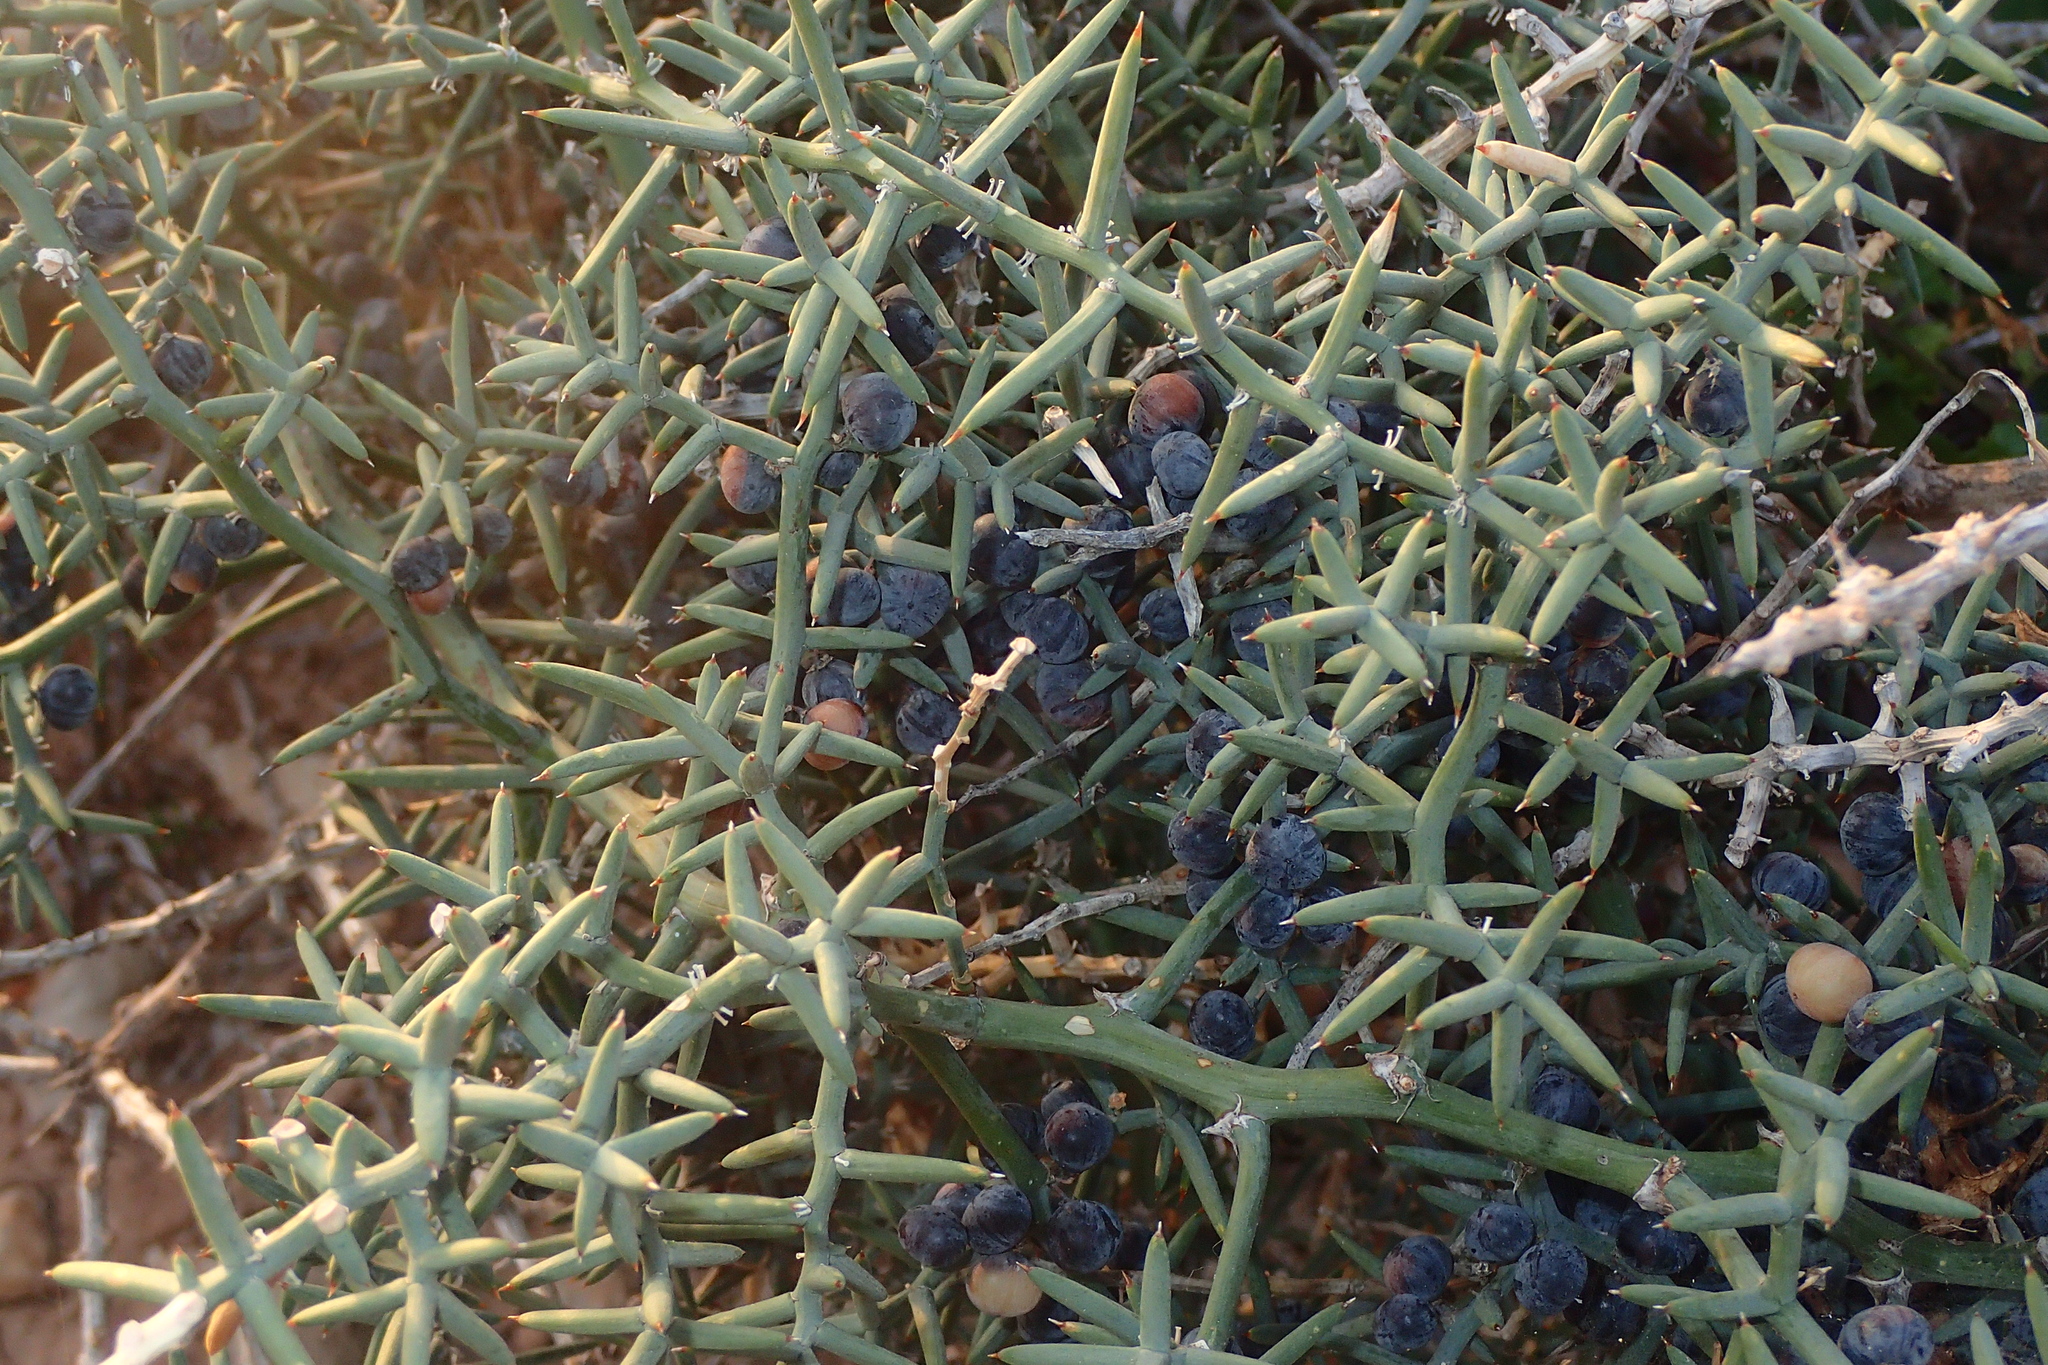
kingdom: Plantae
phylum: Tracheophyta
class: Liliopsida
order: Asparagales
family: Asparagaceae
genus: Asparagus
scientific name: Asparagus horridus
